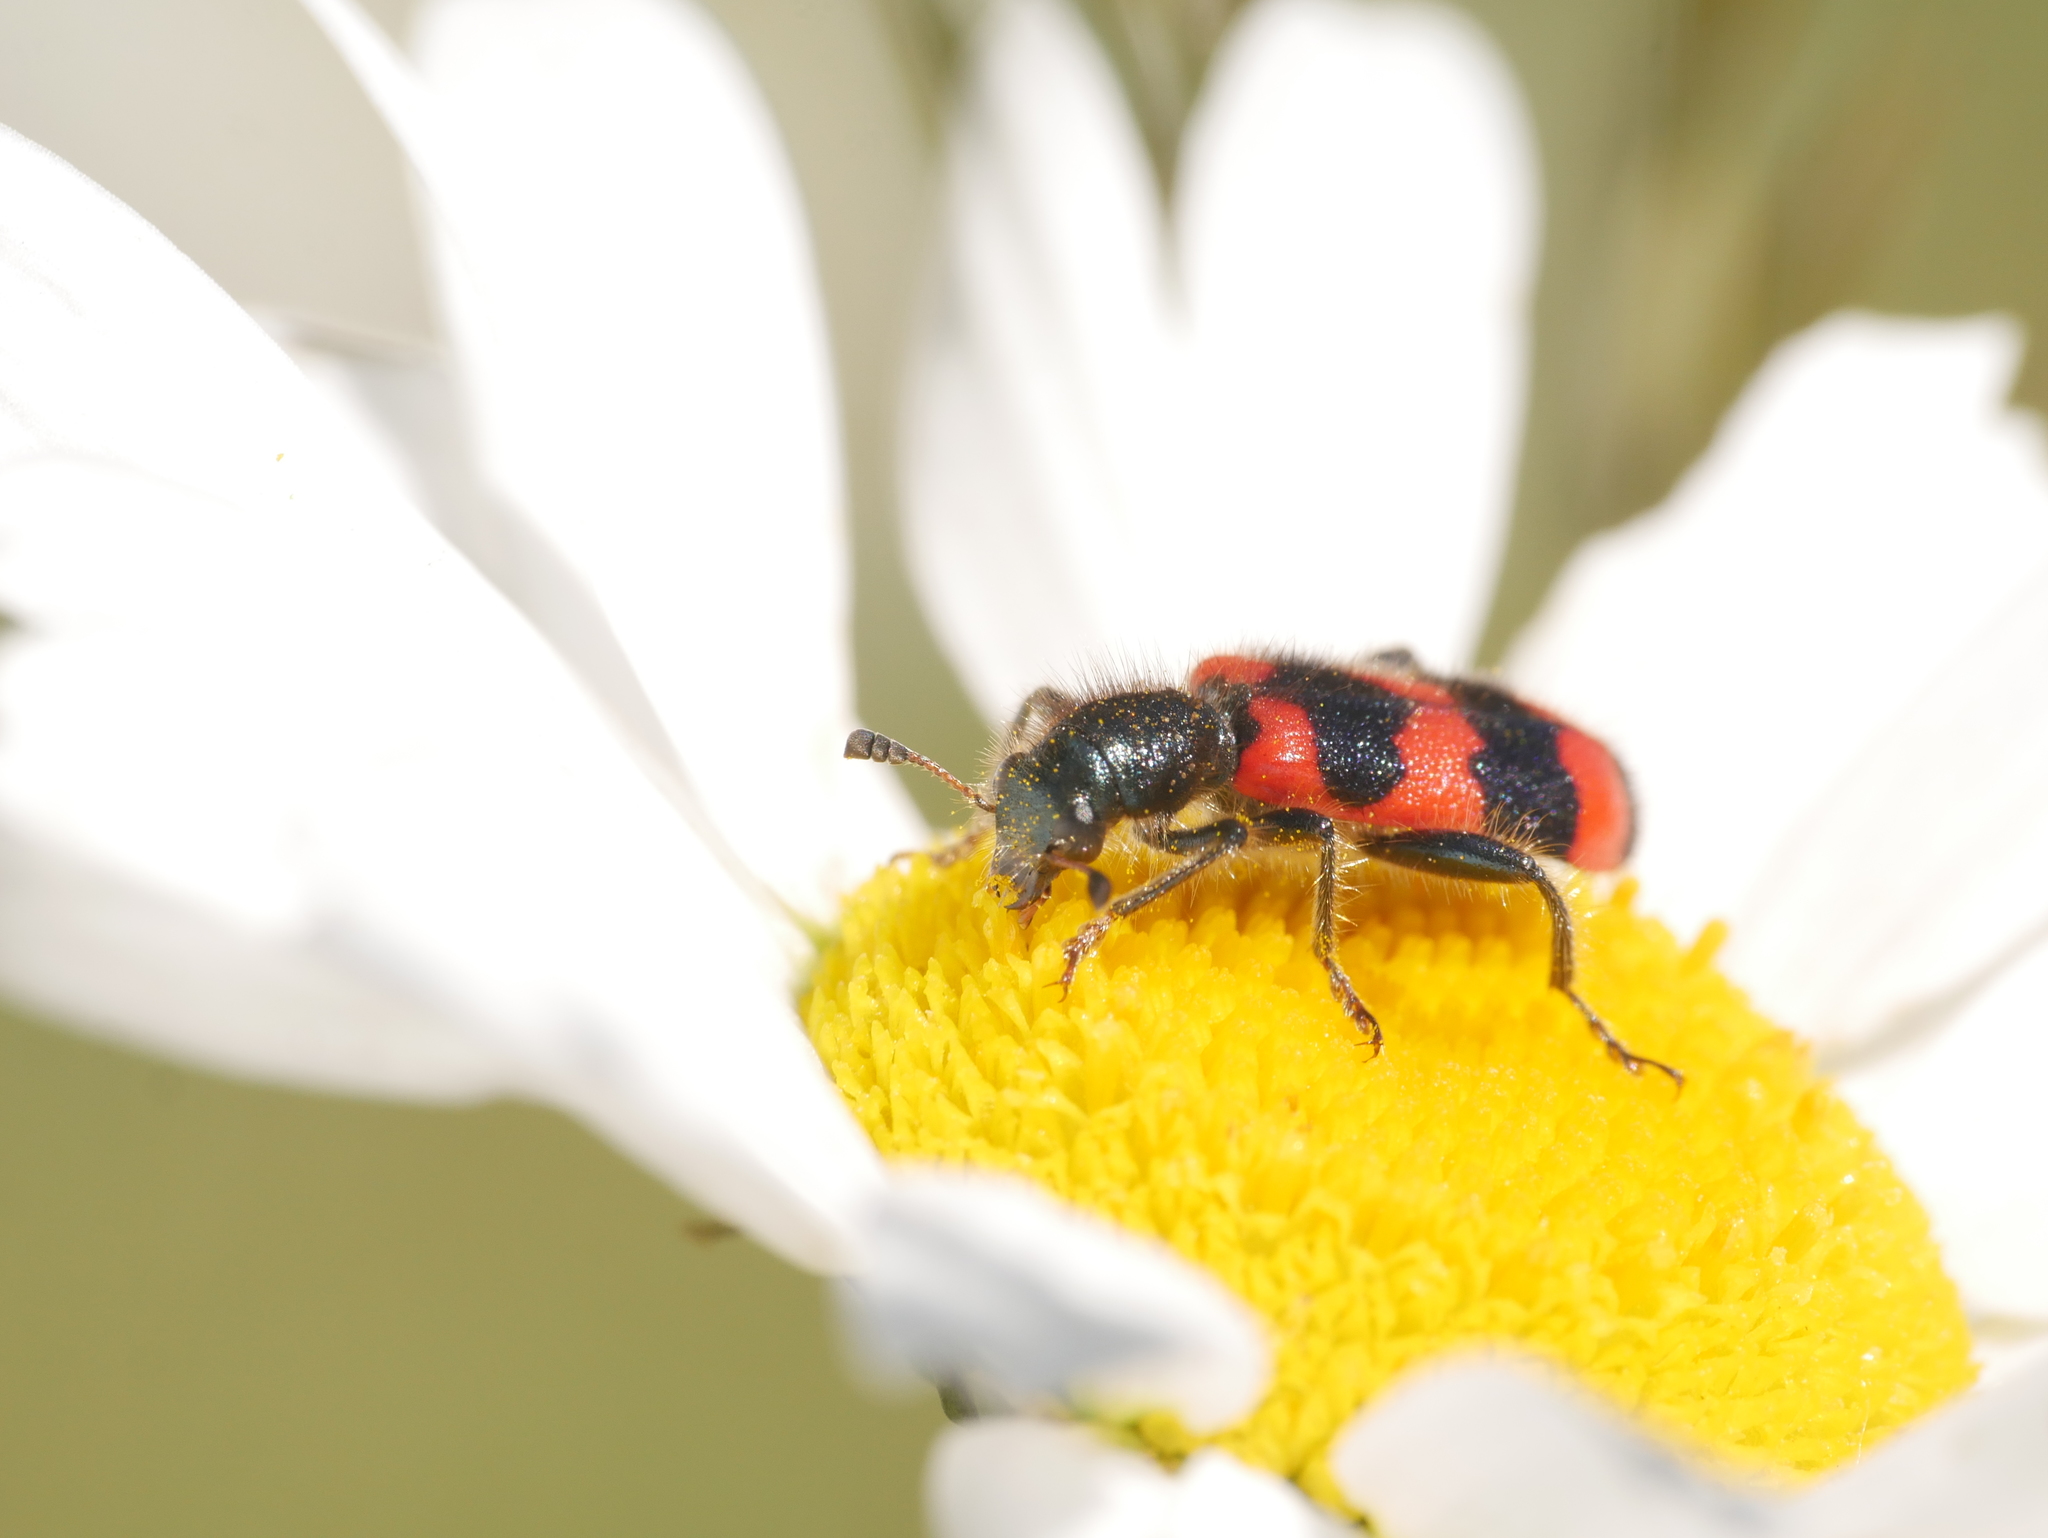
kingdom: Animalia
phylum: Arthropoda
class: Insecta
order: Coleoptera
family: Cleridae
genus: Trichodes
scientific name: Trichodes apiarius
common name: Bee-eating beetle
